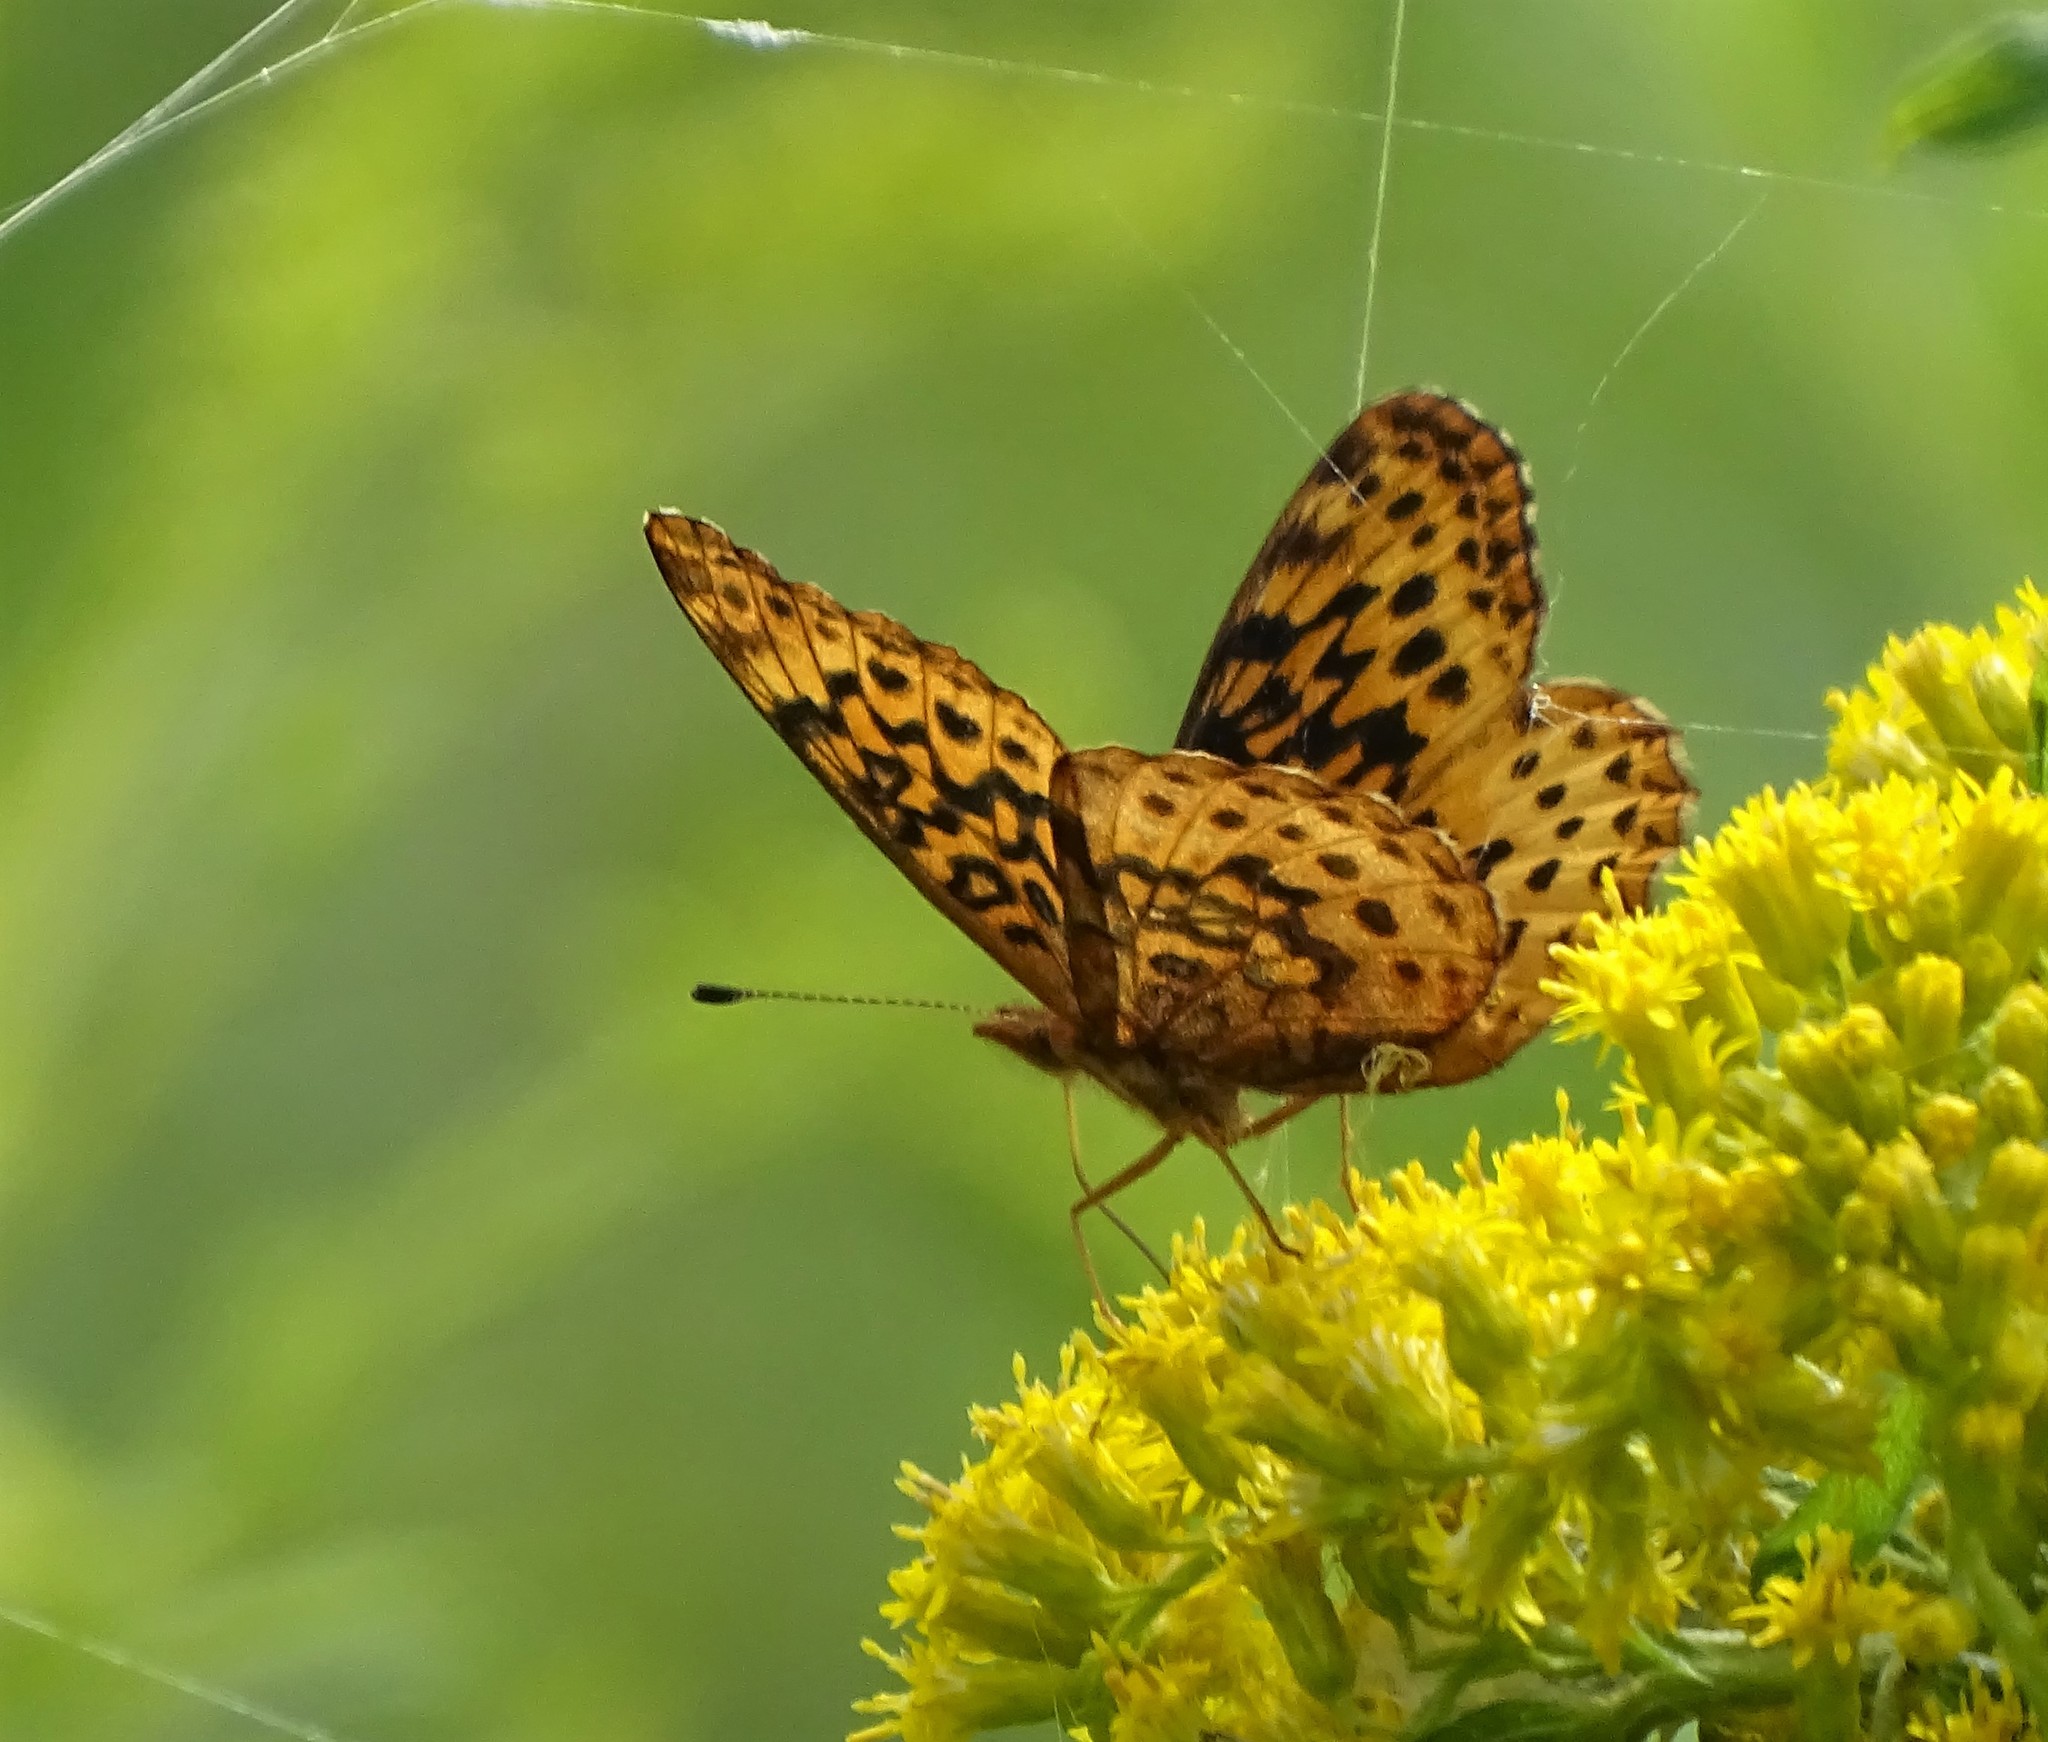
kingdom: Animalia
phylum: Arthropoda
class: Insecta
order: Lepidoptera
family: Nymphalidae
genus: Clossiana
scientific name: Clossiana toddi
